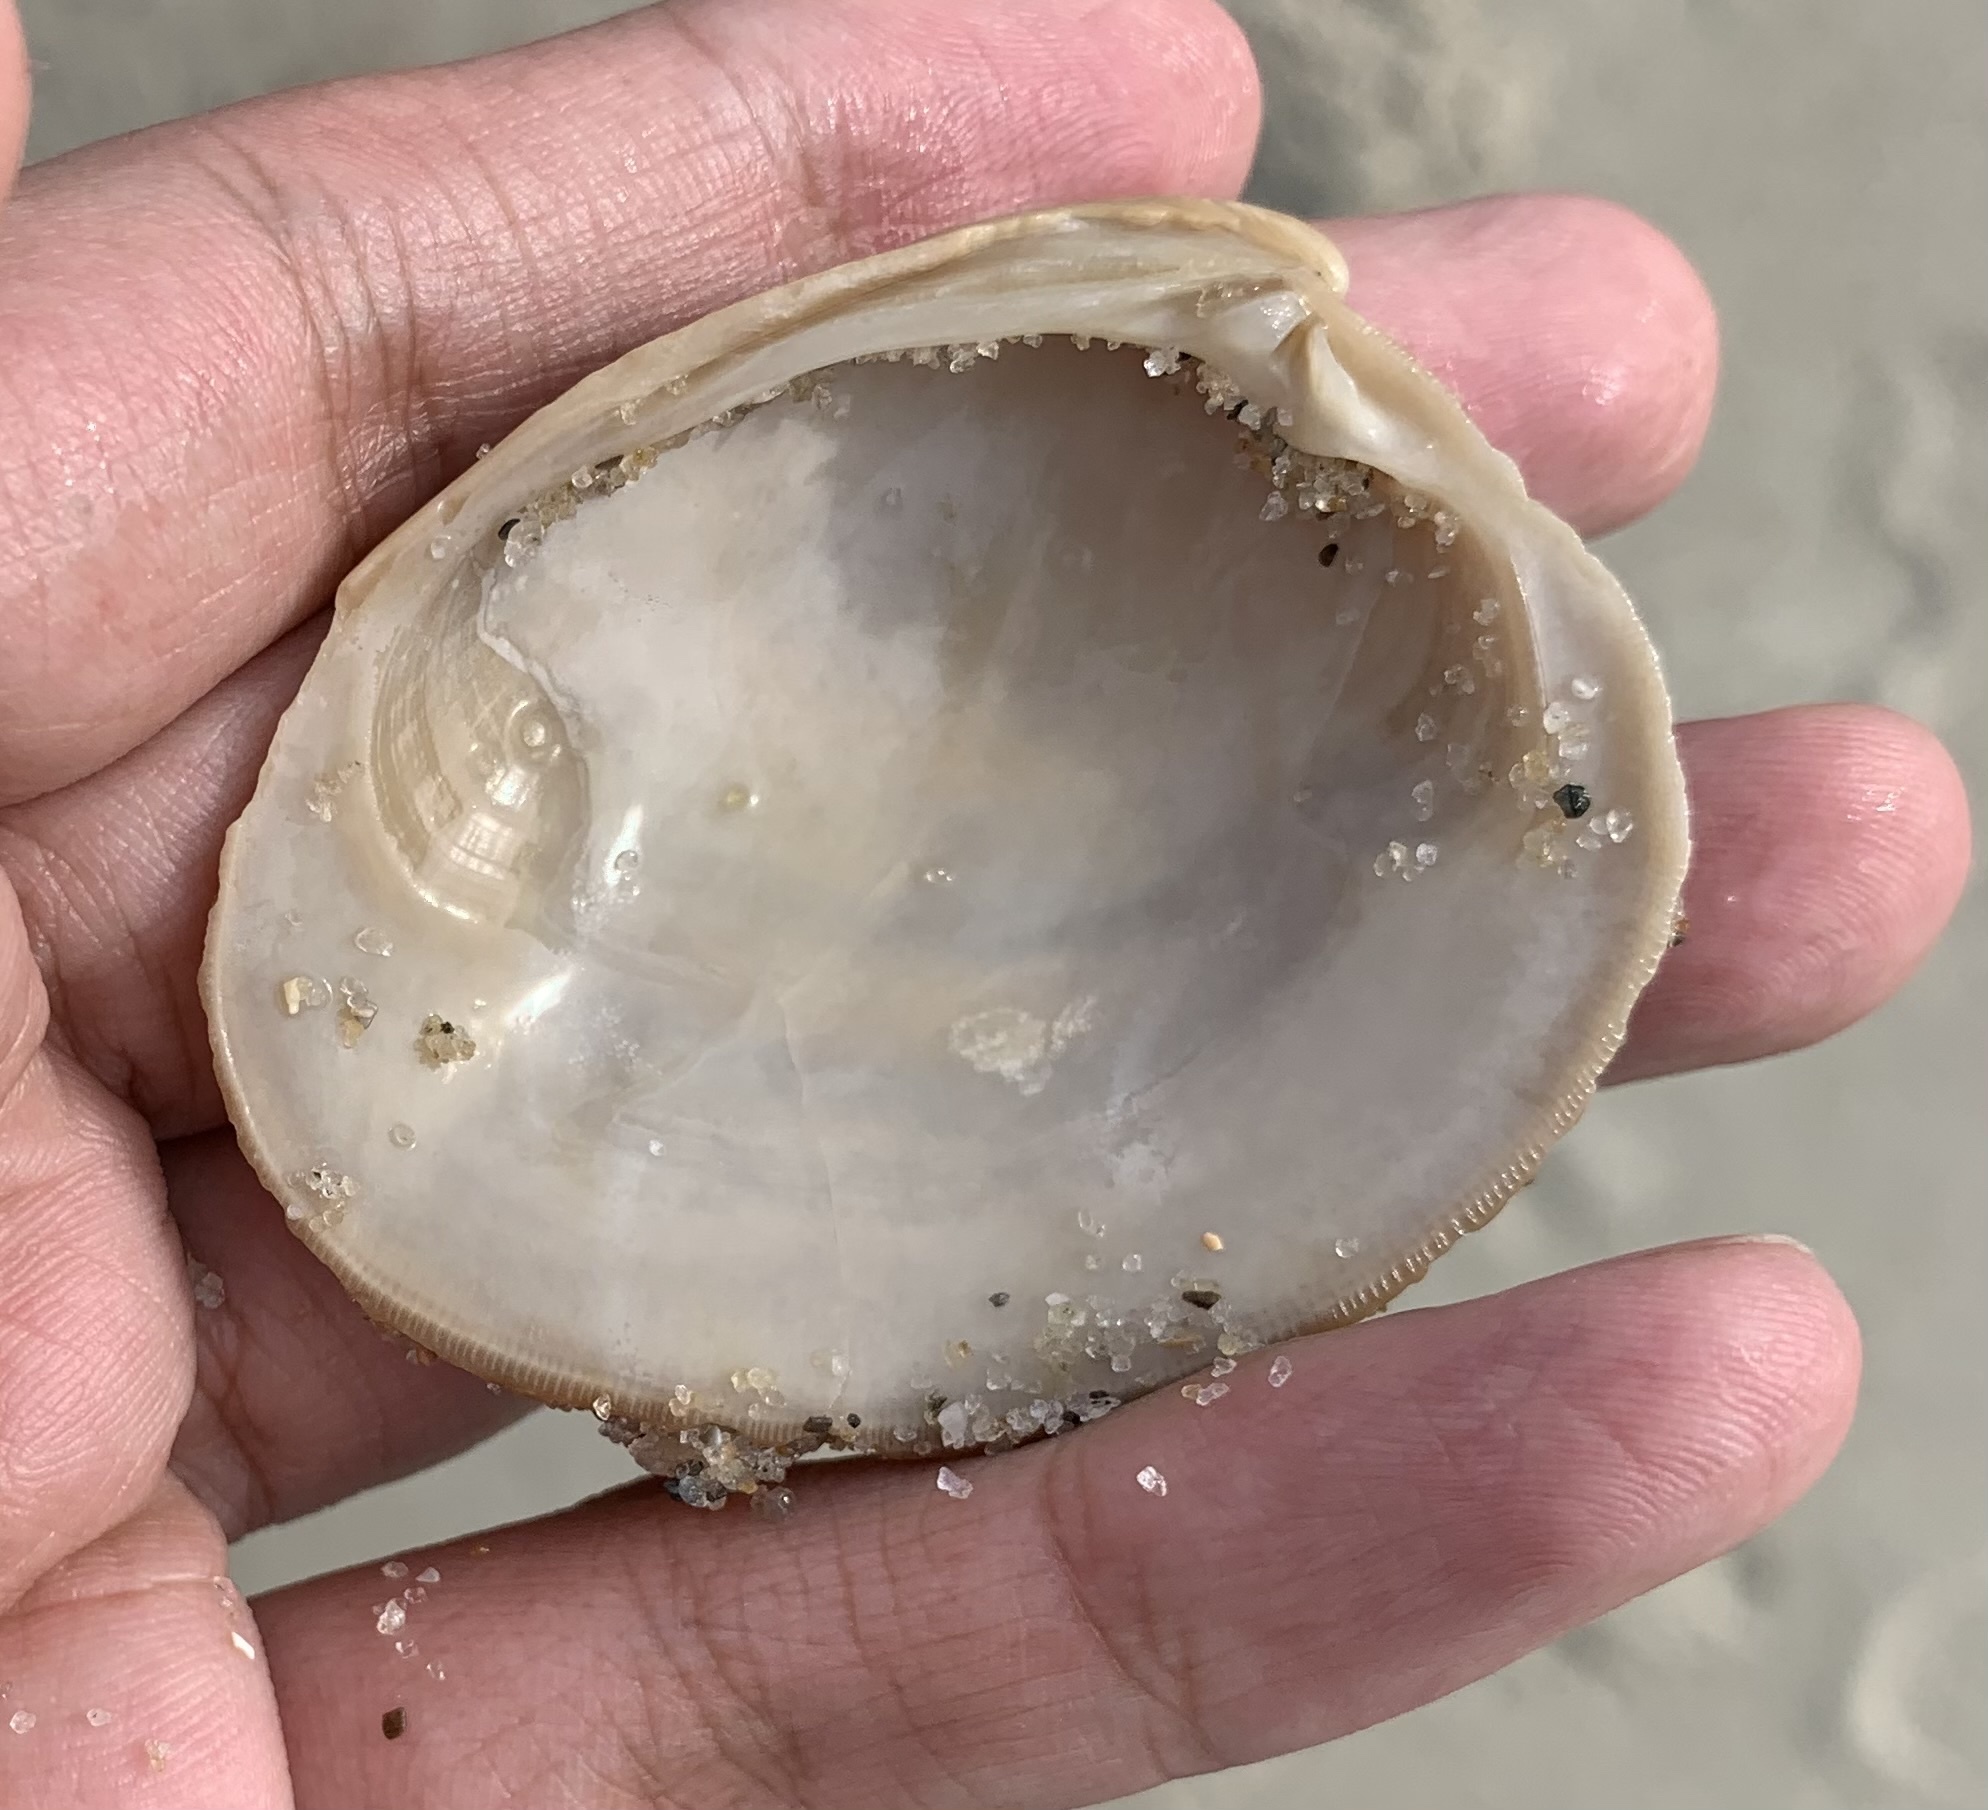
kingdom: Animalia
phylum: Mollusca
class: Bivalvia
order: Venerida
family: Veneridae
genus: Mercenaria
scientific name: Mercenaria campechiensis
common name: Südliche quahog-muschel
